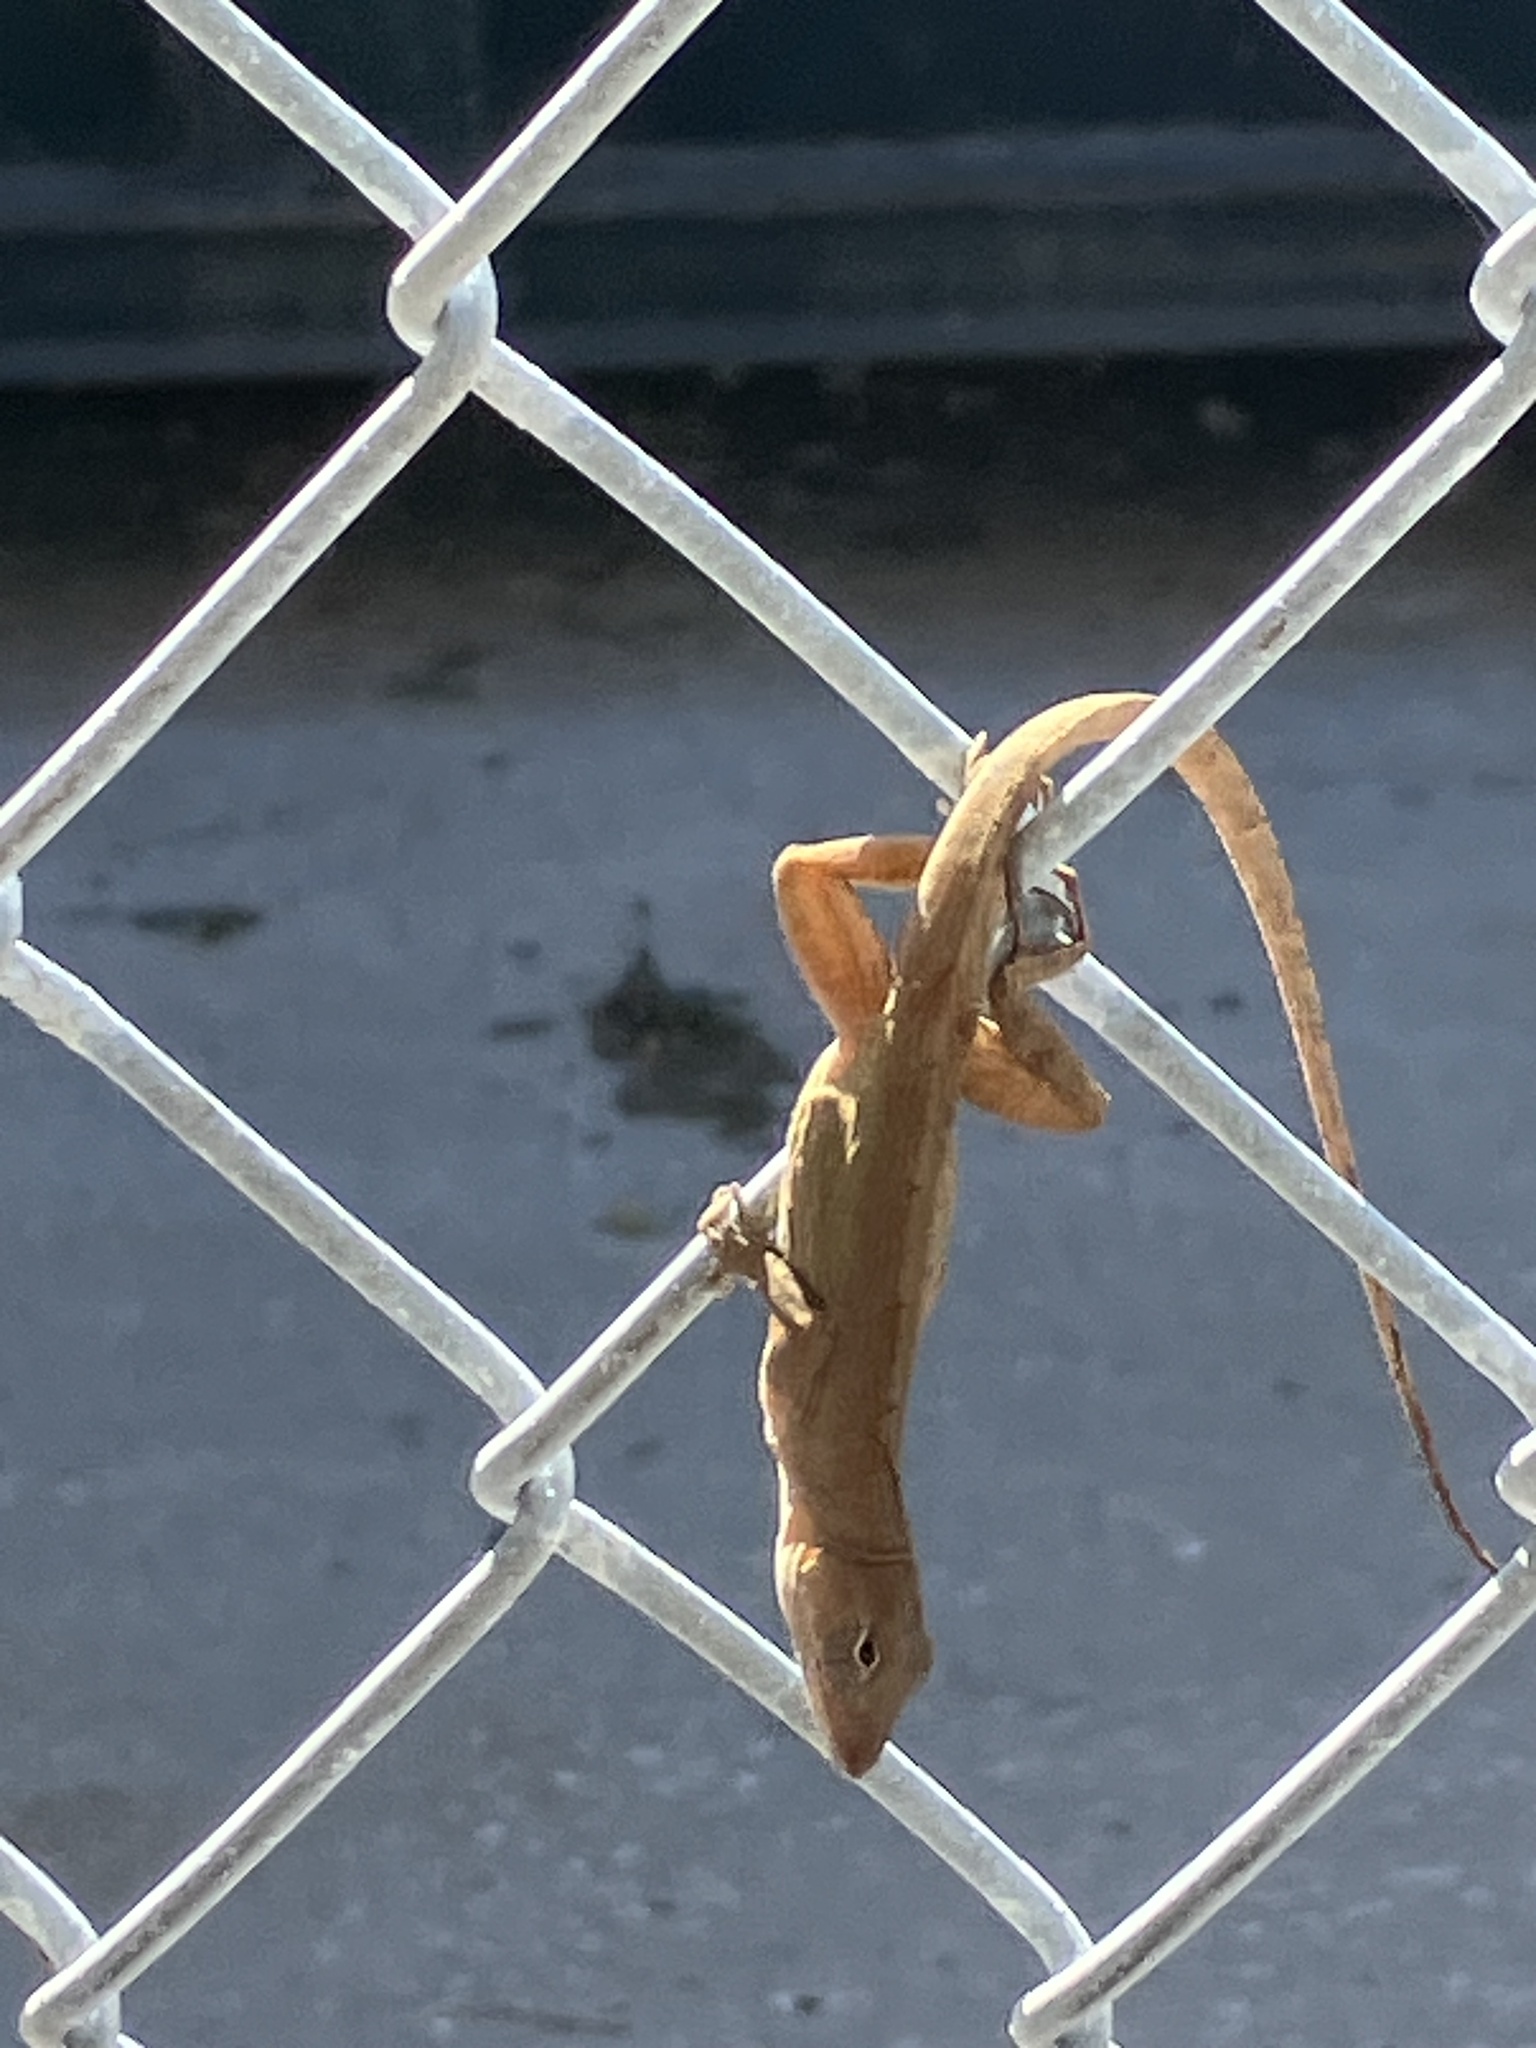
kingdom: Animalia
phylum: Chordata
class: Squamata
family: Dactyloidae
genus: Anolis
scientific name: Anolis sagrei
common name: Brown anole
